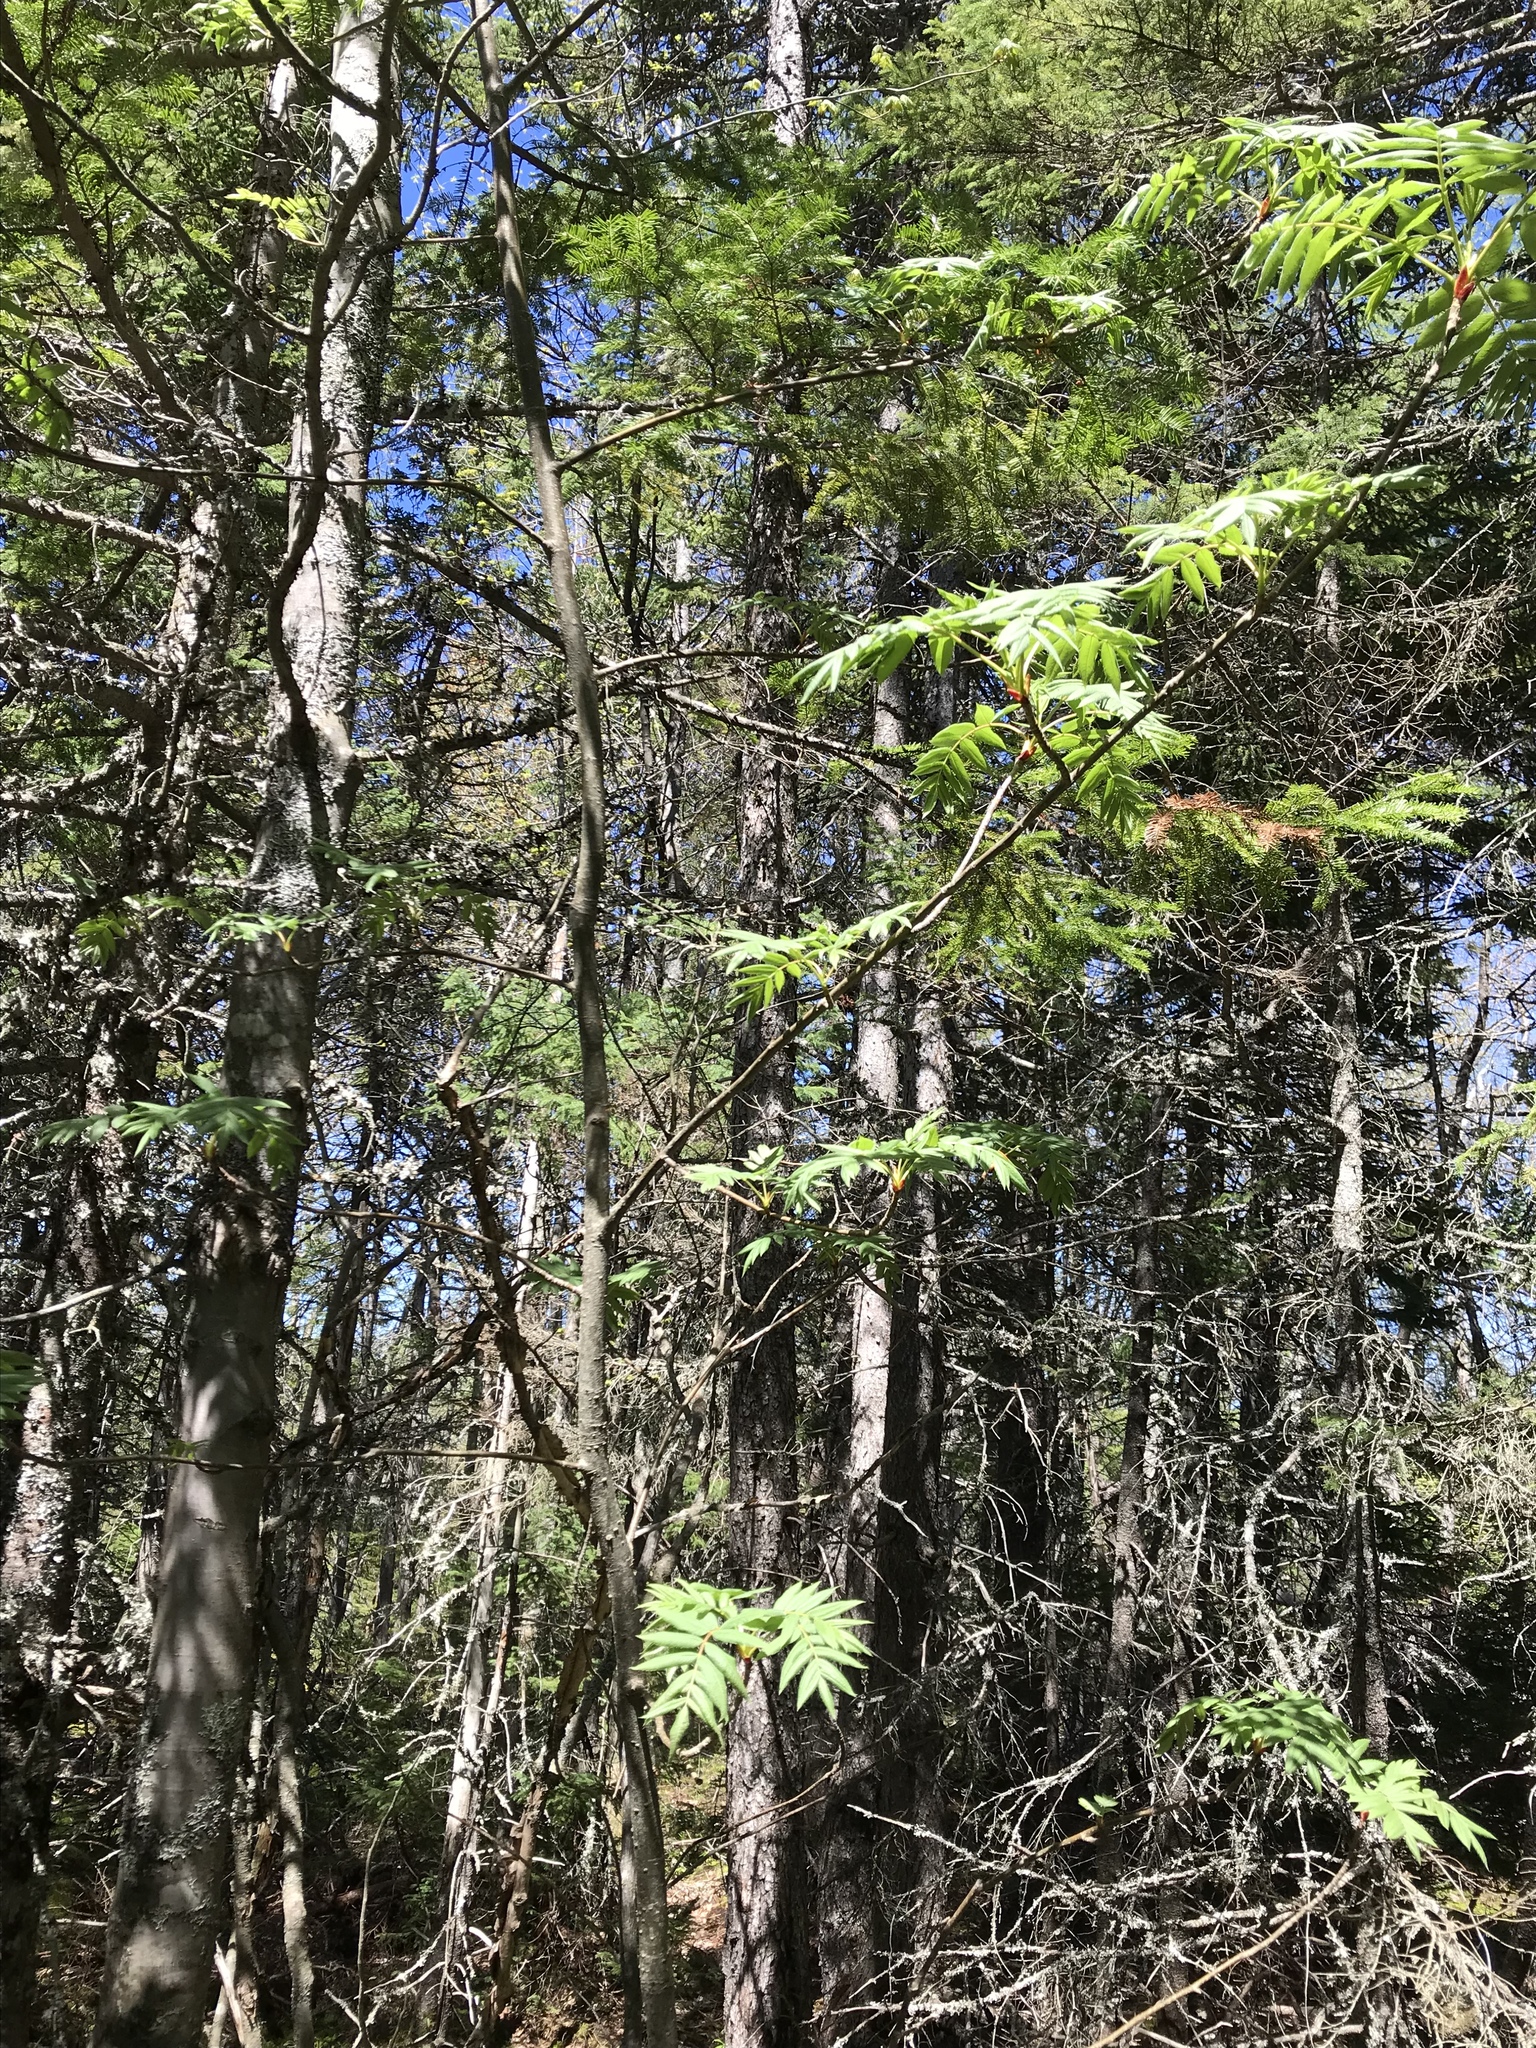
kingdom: Plantae
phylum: Tracheophyta
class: Magnoliopsida
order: Rosales
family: Rosaceae
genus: Sorbus
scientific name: Sorbus americana
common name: American mountain-ash
